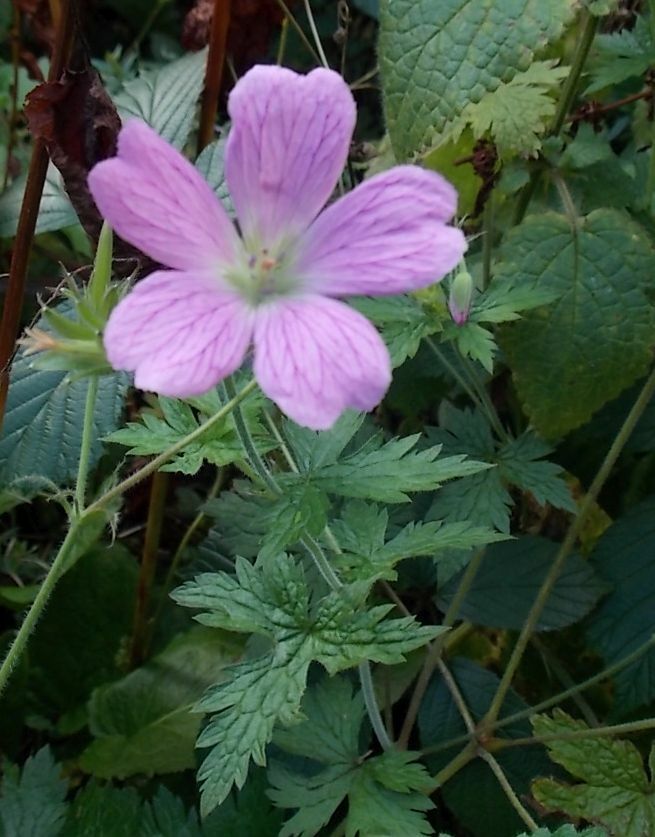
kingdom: Plantae
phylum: Tracheophyta
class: Magnoliopsida
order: Geraniales
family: Geraniaceae
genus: Geranium
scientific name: Geranium oxonianum
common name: Druce's crane's-bill
